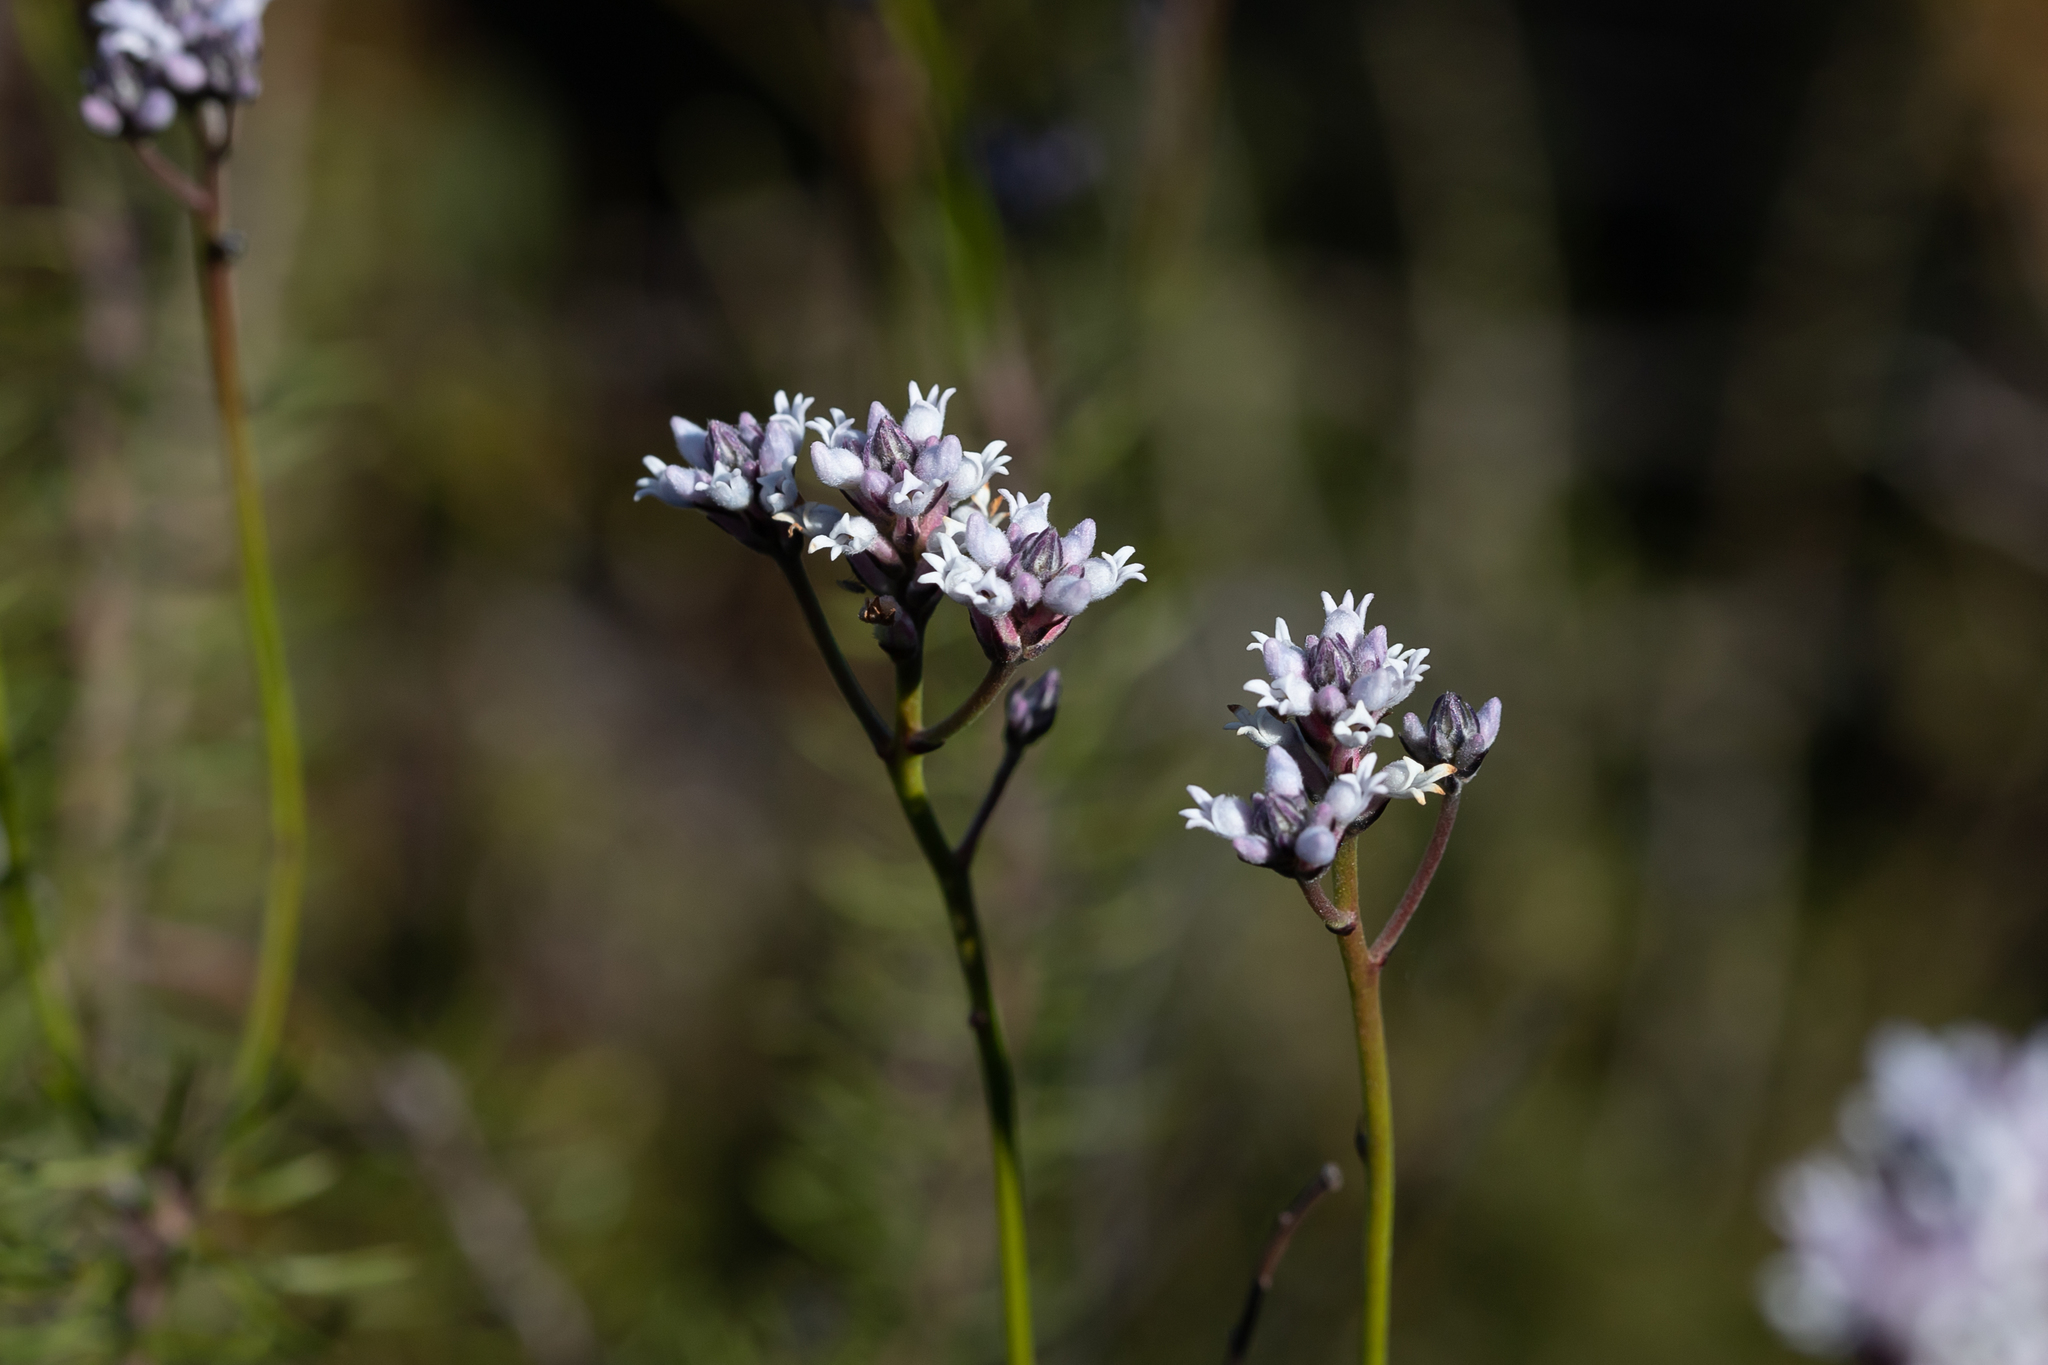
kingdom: Plantae
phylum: Tracheophyta
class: Magnoliopsida
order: Proteales
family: Proteaceae
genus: Conospermum
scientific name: Conospermum patens
